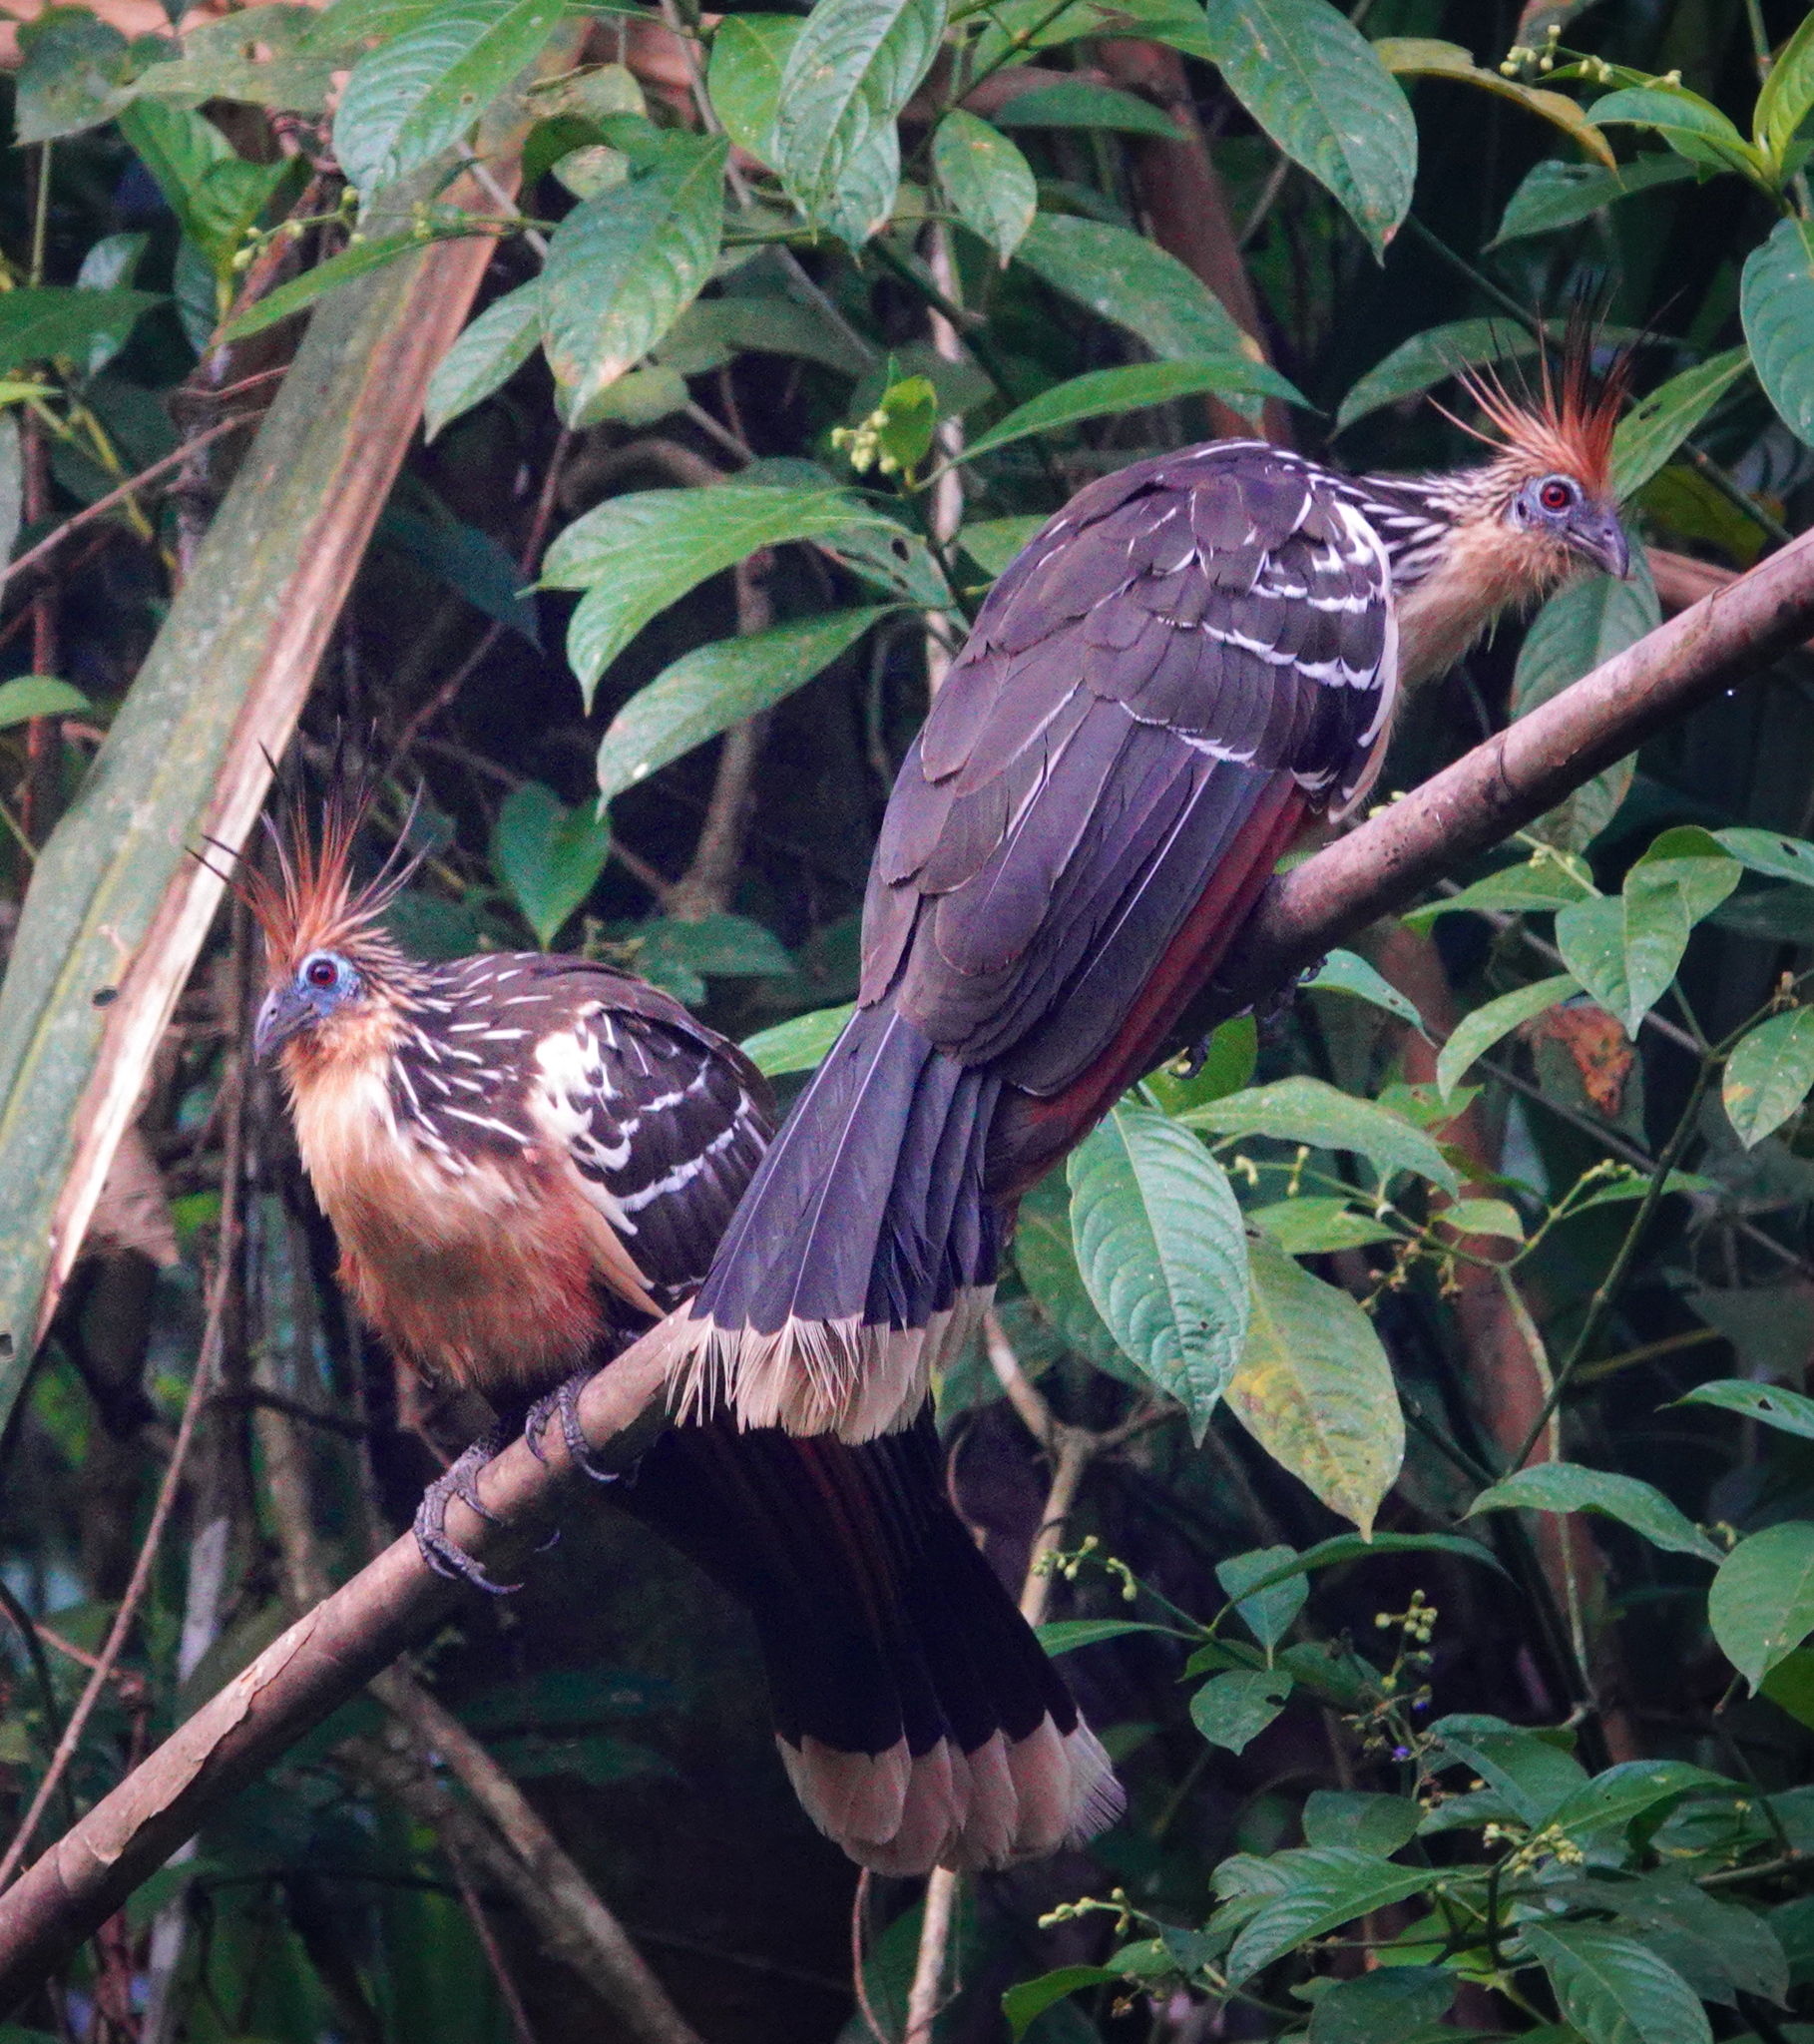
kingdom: Animalia
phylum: Chordata
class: Aves
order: Opisthocomiformes
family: Opisthocomidae
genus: Opisthocomus
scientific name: Opisthocomus hoazin
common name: Hoatzin
